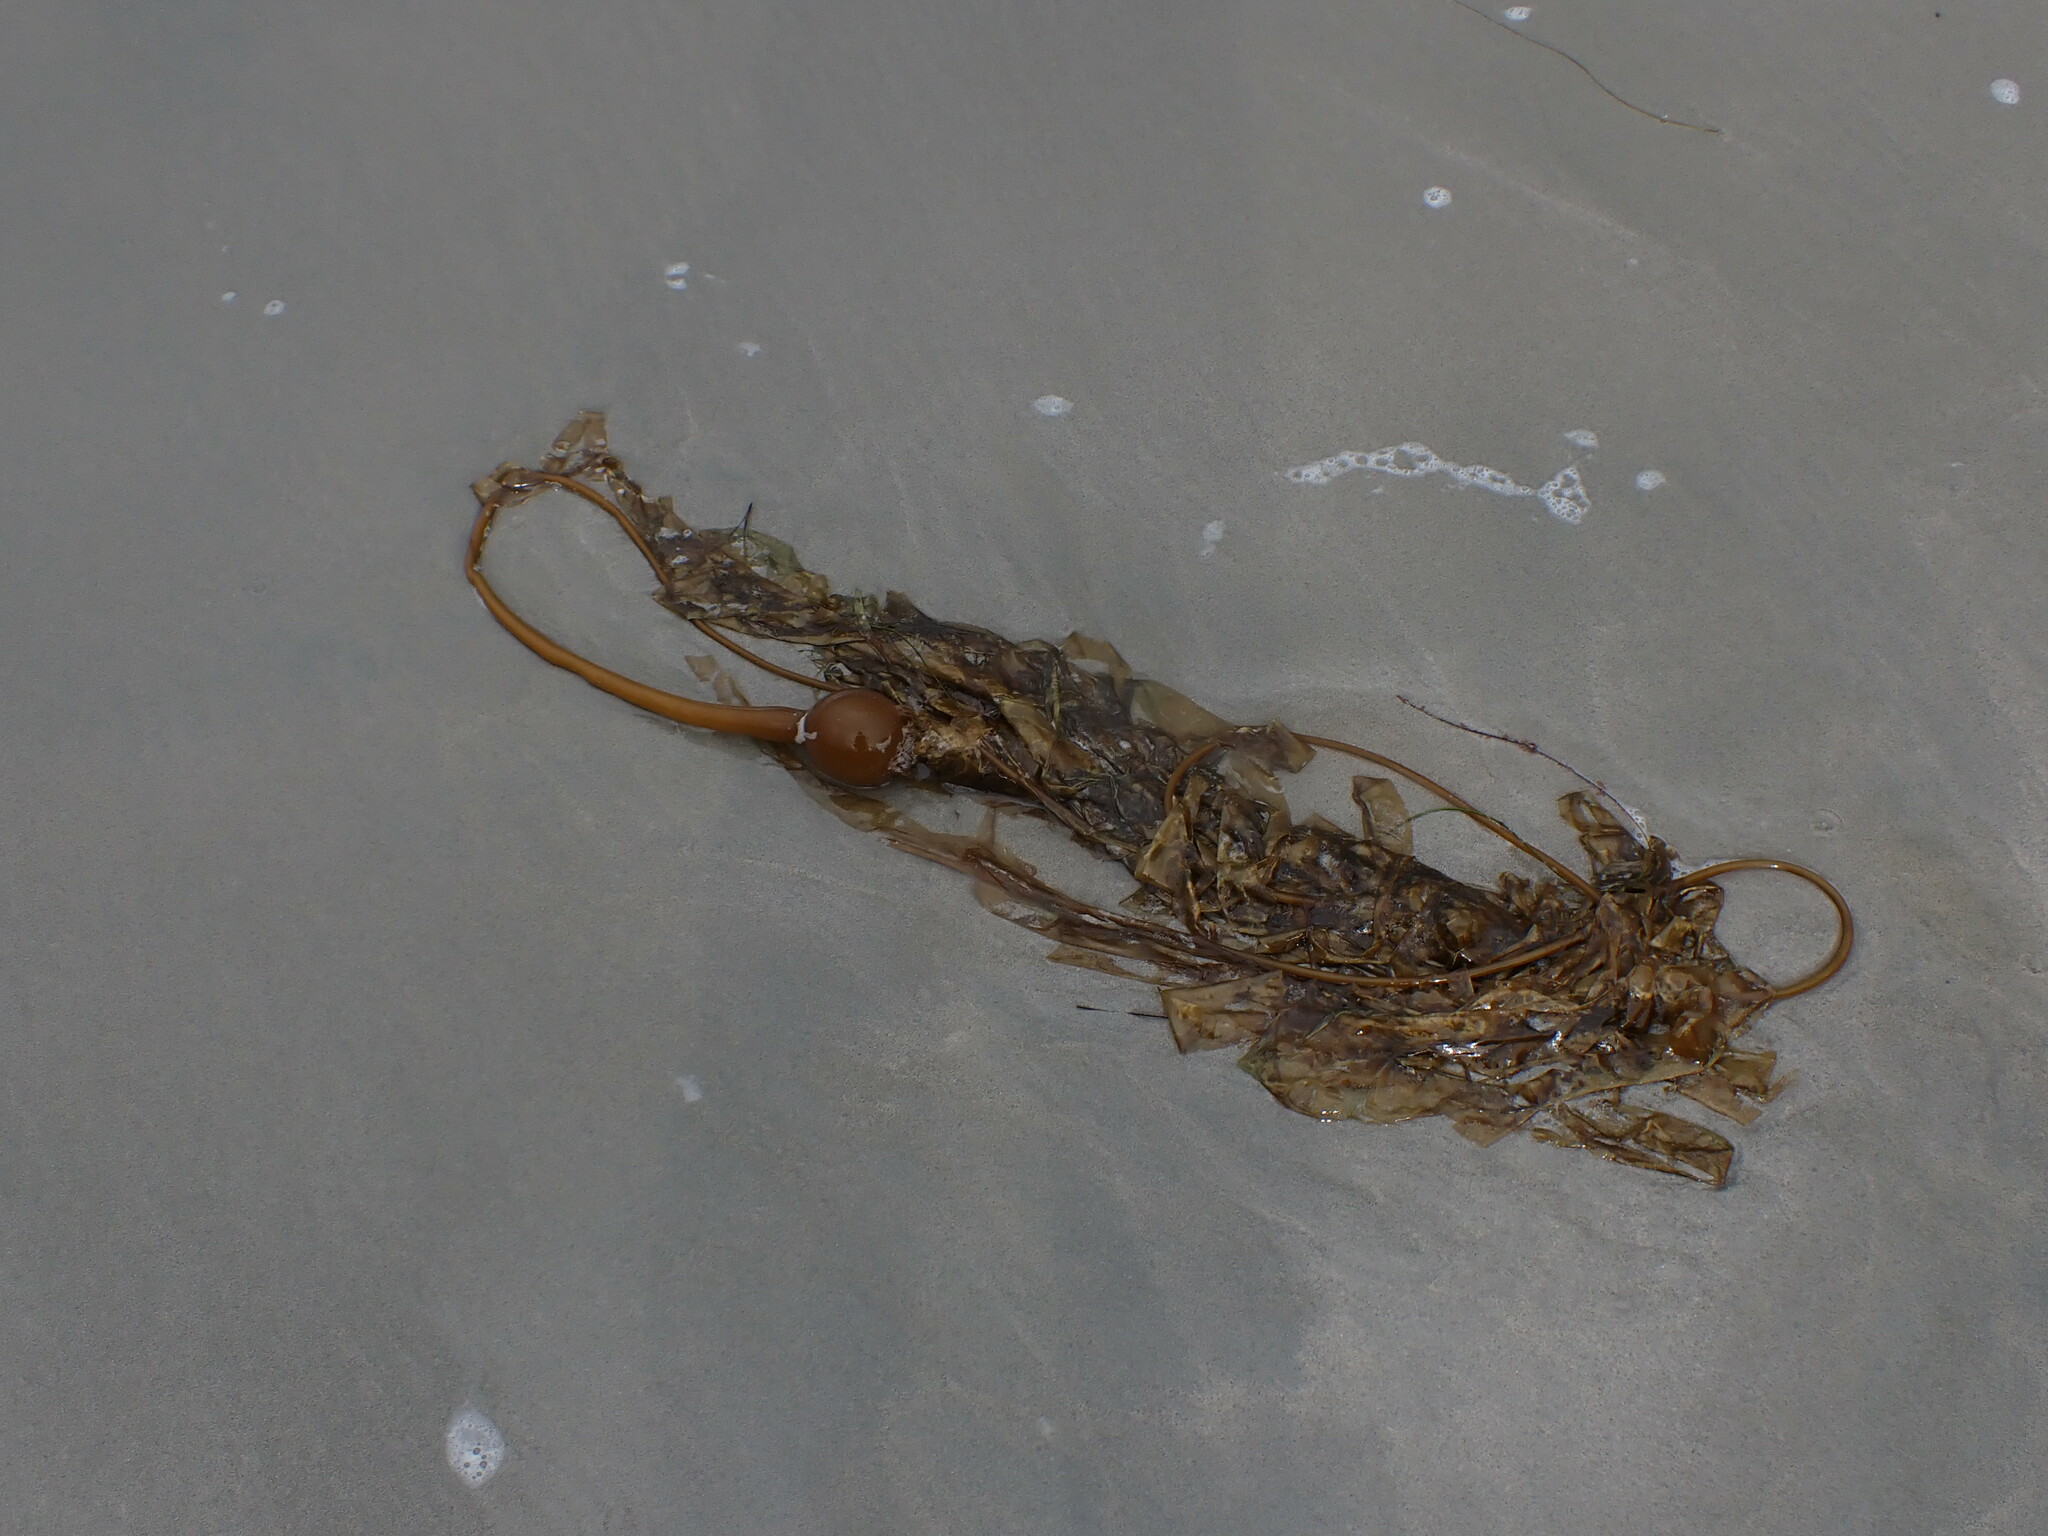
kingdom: Chromista
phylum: Ochrophyta
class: Phaeophyceae
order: Laminariales
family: Laminariaceae
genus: Nereocystis
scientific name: Nereocystis luetkeana
